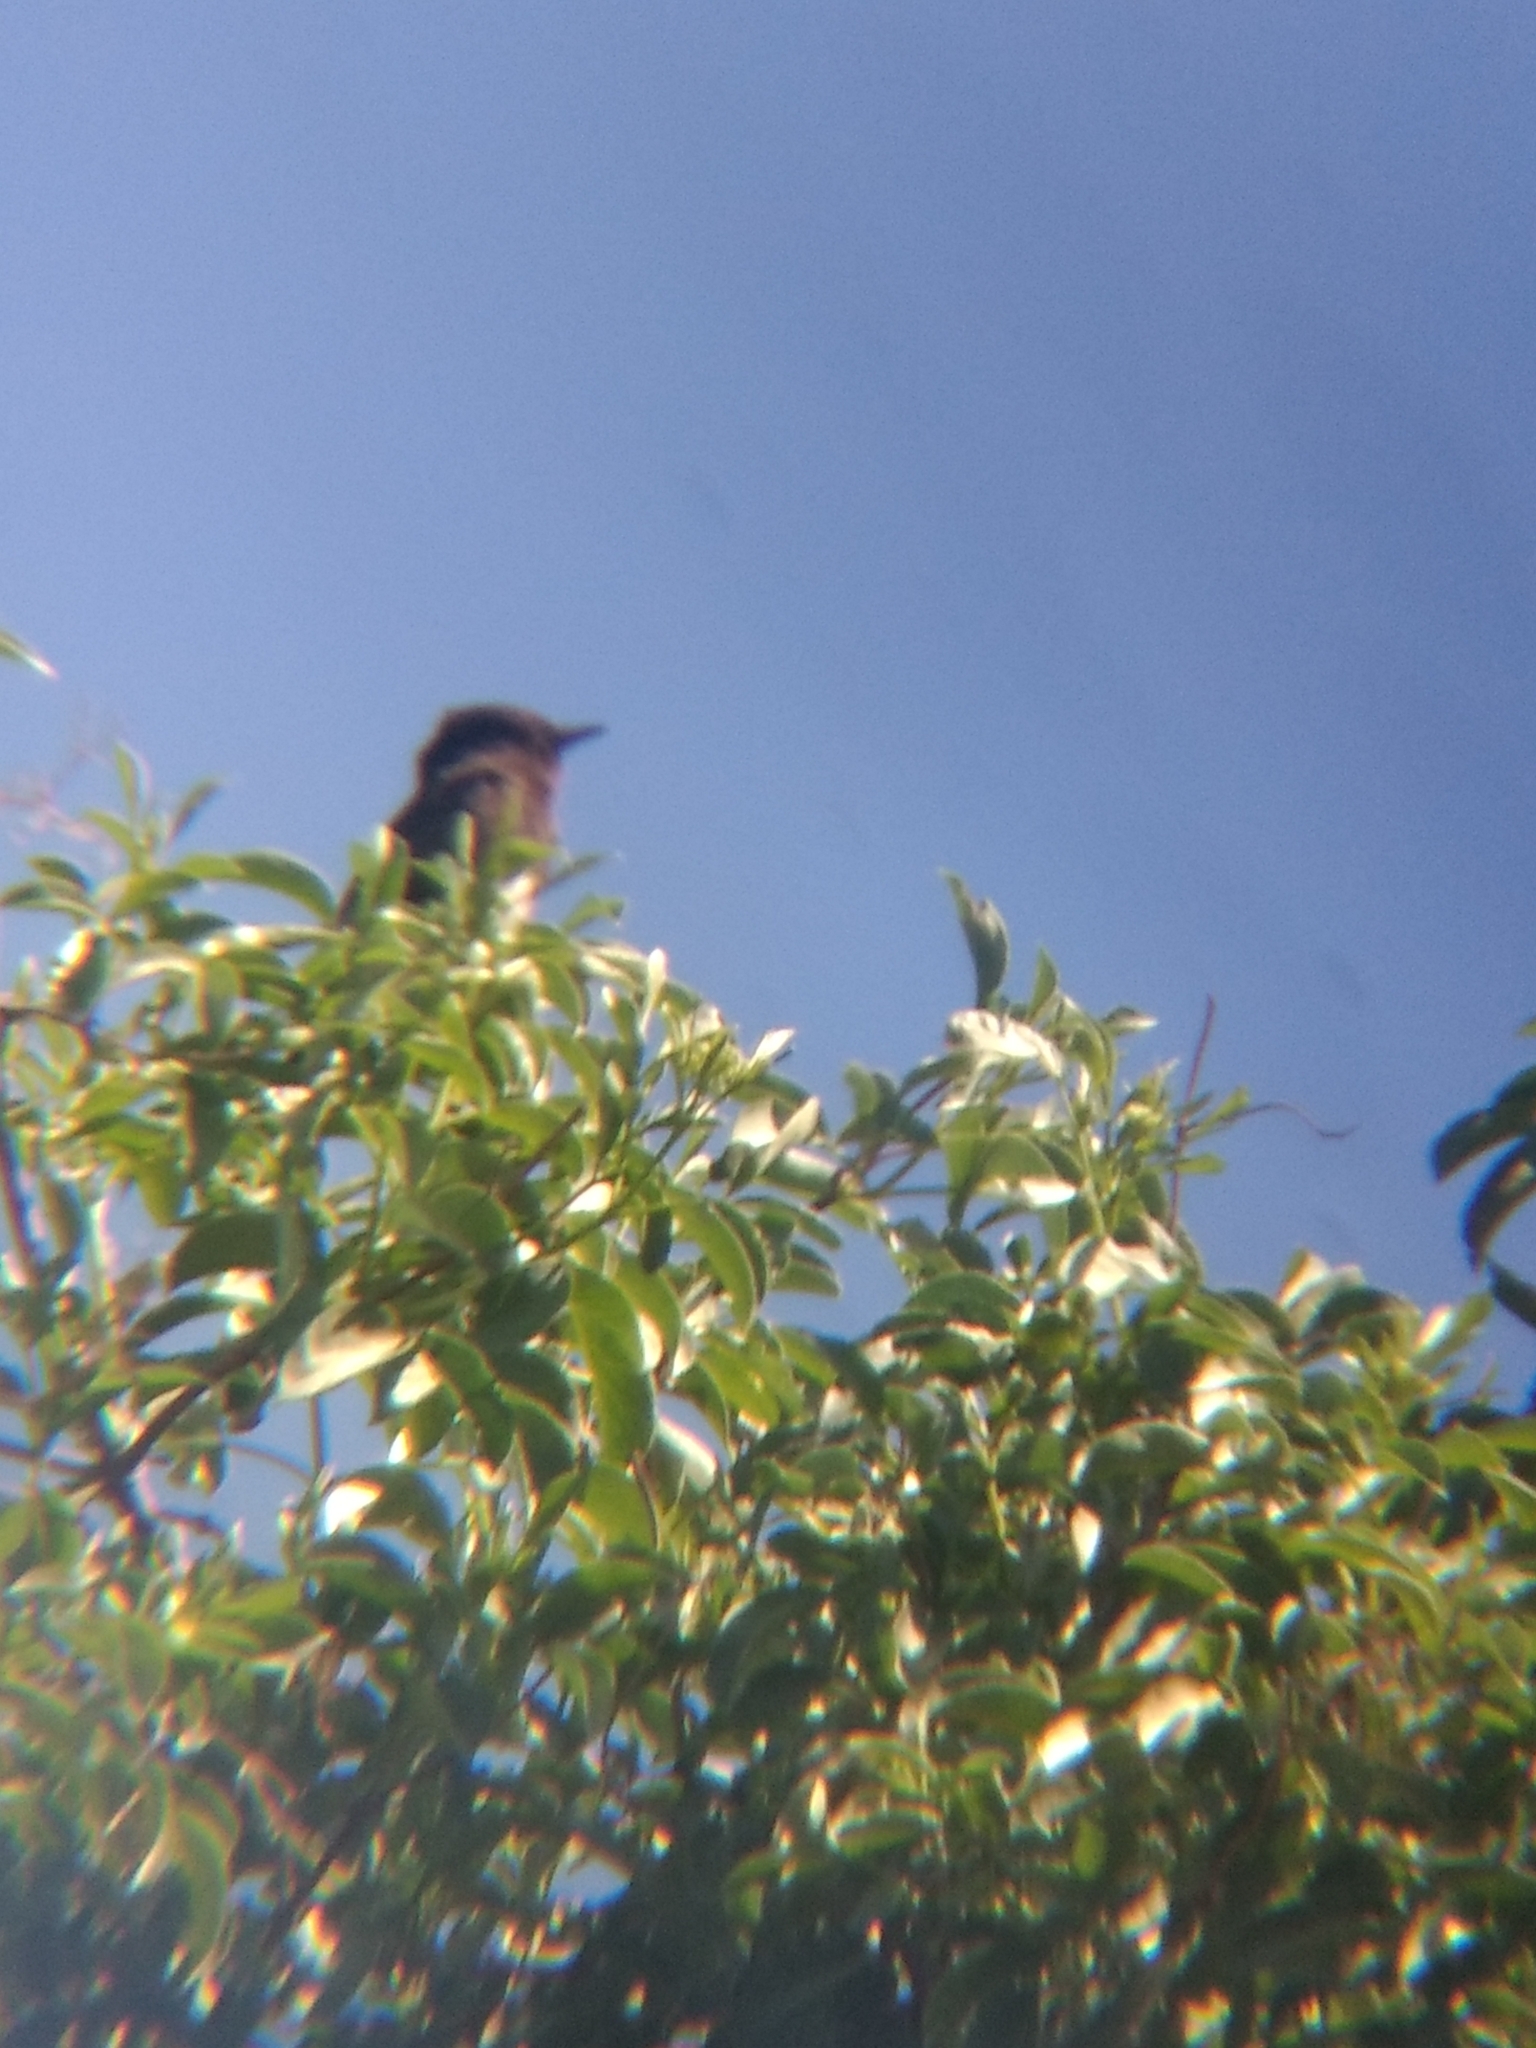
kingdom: Animalia
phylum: Chordata
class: Aves
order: Passeriformes
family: Tyrannidae
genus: Sayornis
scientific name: Sayornis nigricans
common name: Black phoebe
